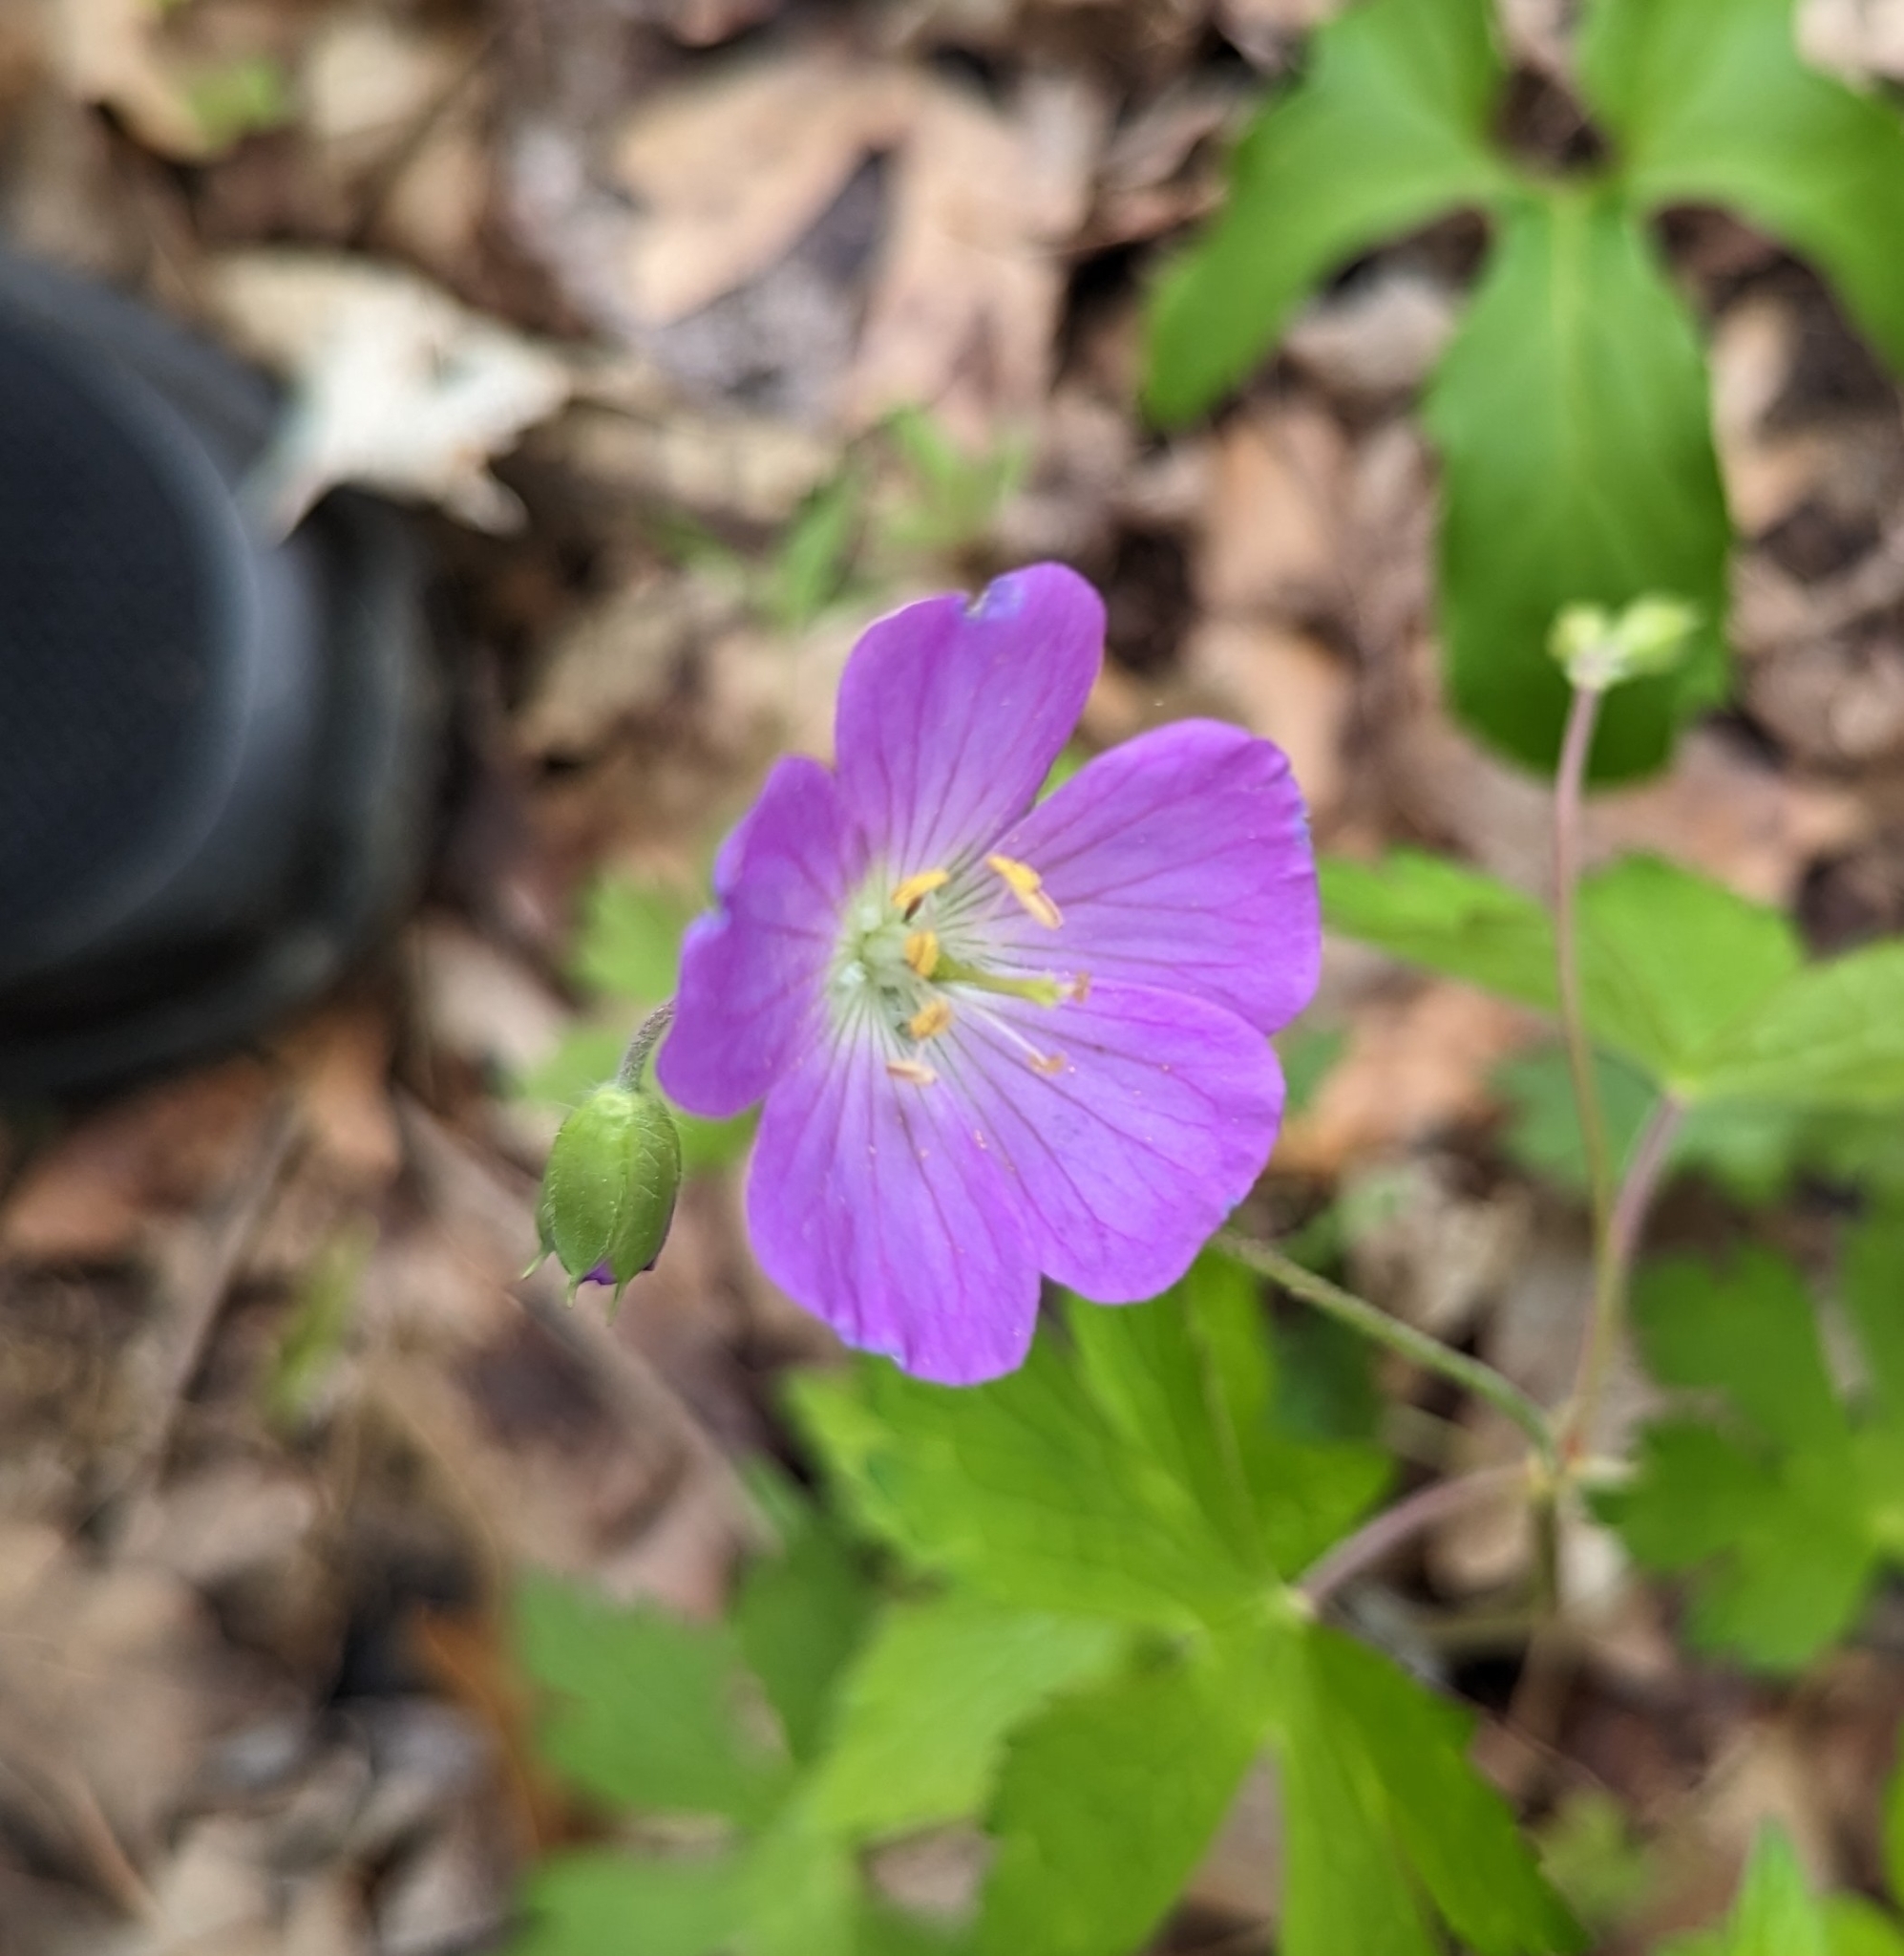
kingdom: Plantae
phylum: Tracheophyta
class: Magnoliopsida
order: Geraniales
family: Geraniaceae
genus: Geranium
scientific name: Geranium maculatum
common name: Spotted geranium
